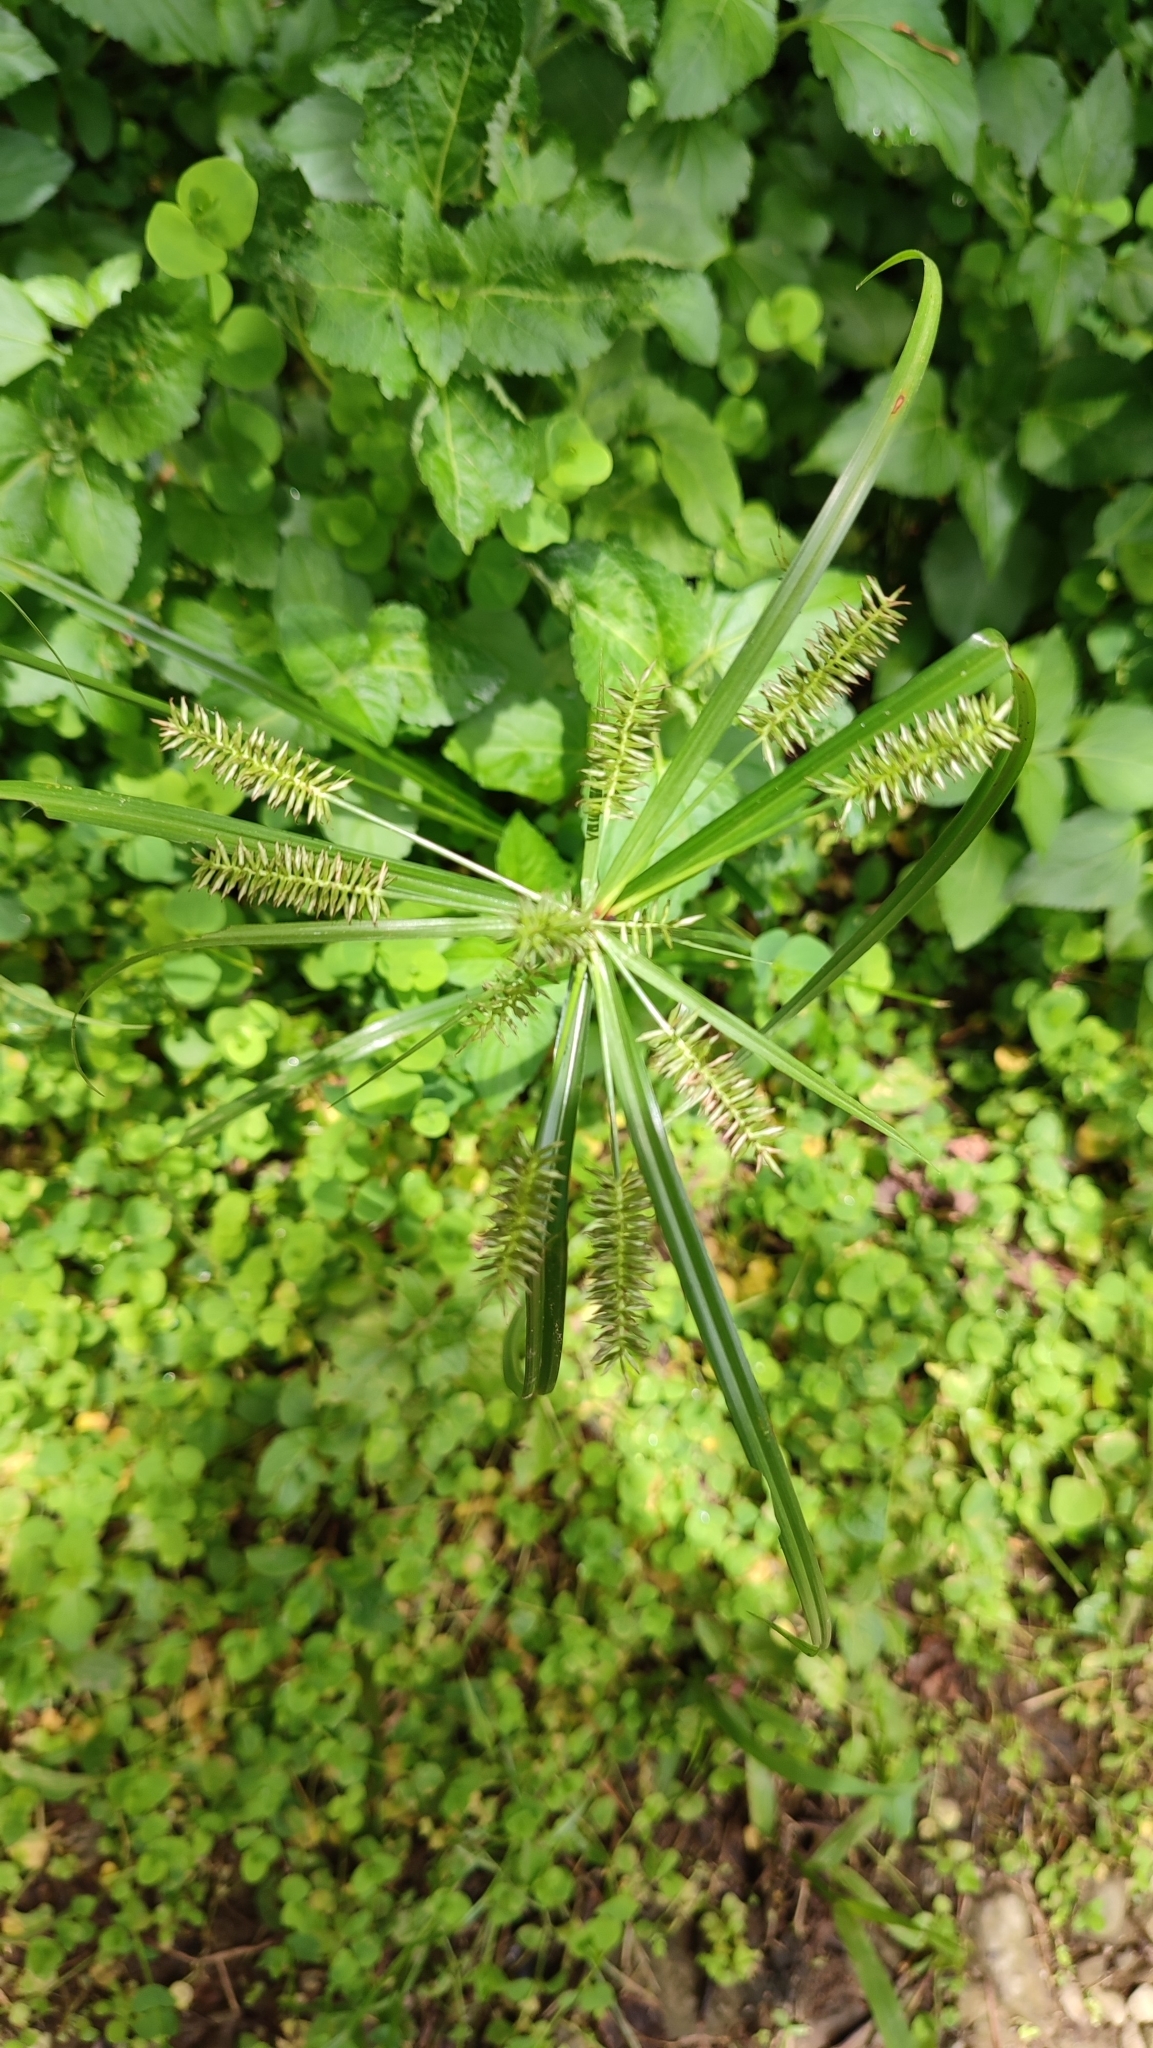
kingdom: Plantae
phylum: Tracheophyta
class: Liliopsida
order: Poales
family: Cyperaceae
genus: Cyperus
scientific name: Cyperus cyperinus
